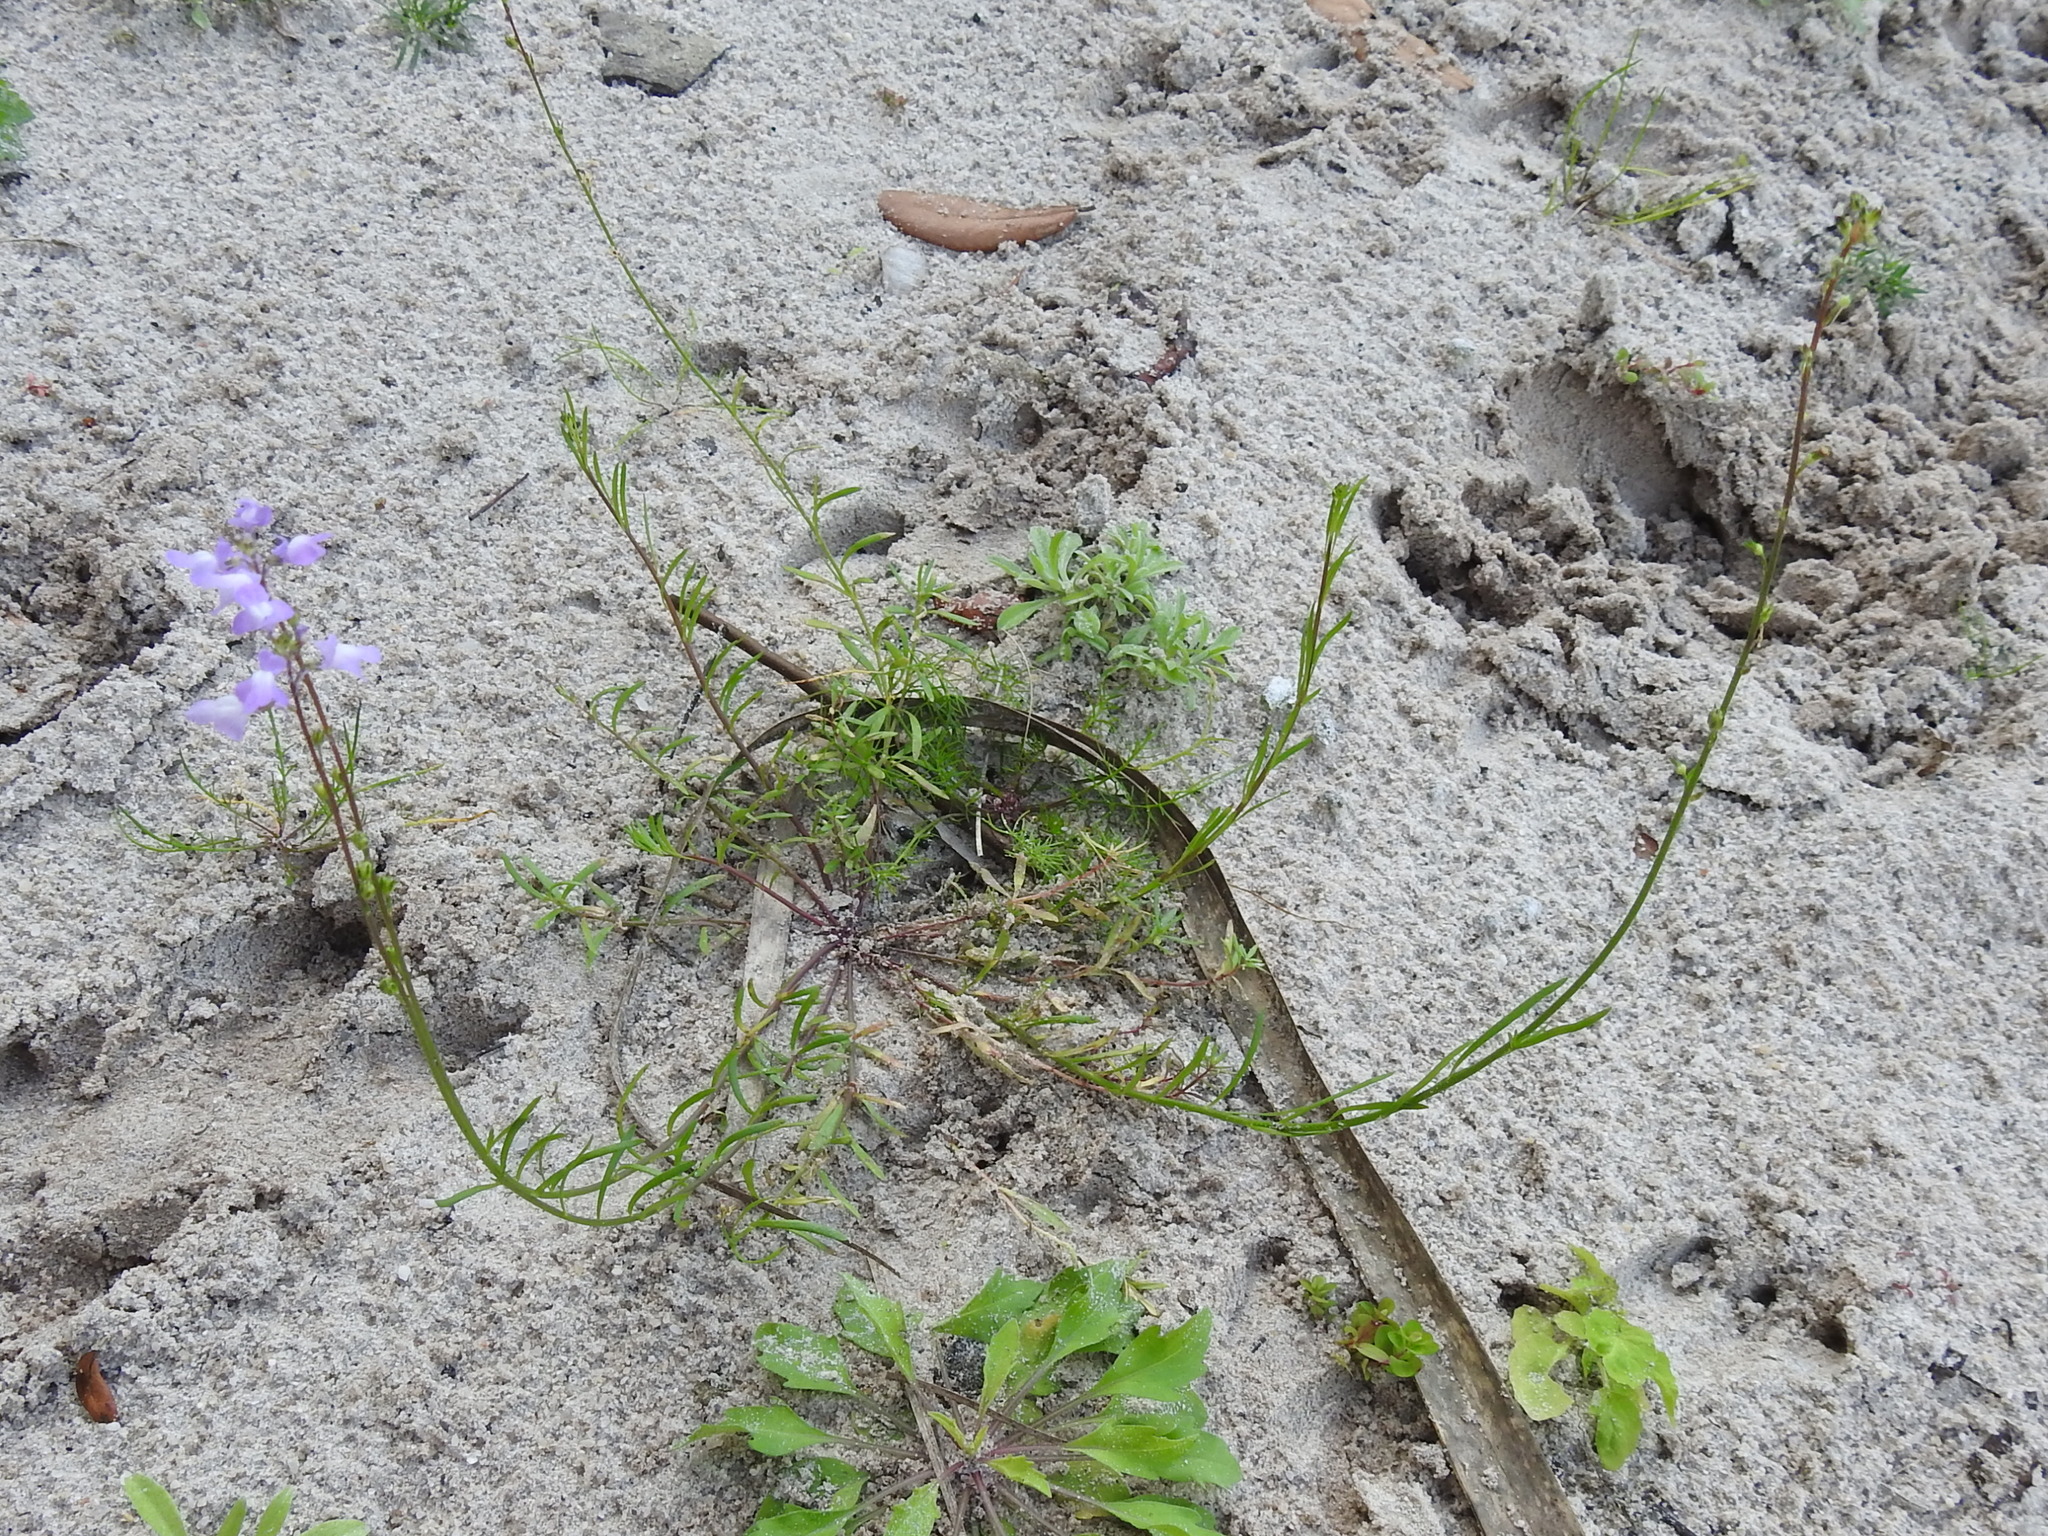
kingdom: Plantae
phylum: Tracheophyta
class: Magnoliopsida
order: Lamiales
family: Plantaginaceae
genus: Nuttallanthus
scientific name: Nuttallanthus canadensis
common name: Blue toadflax
